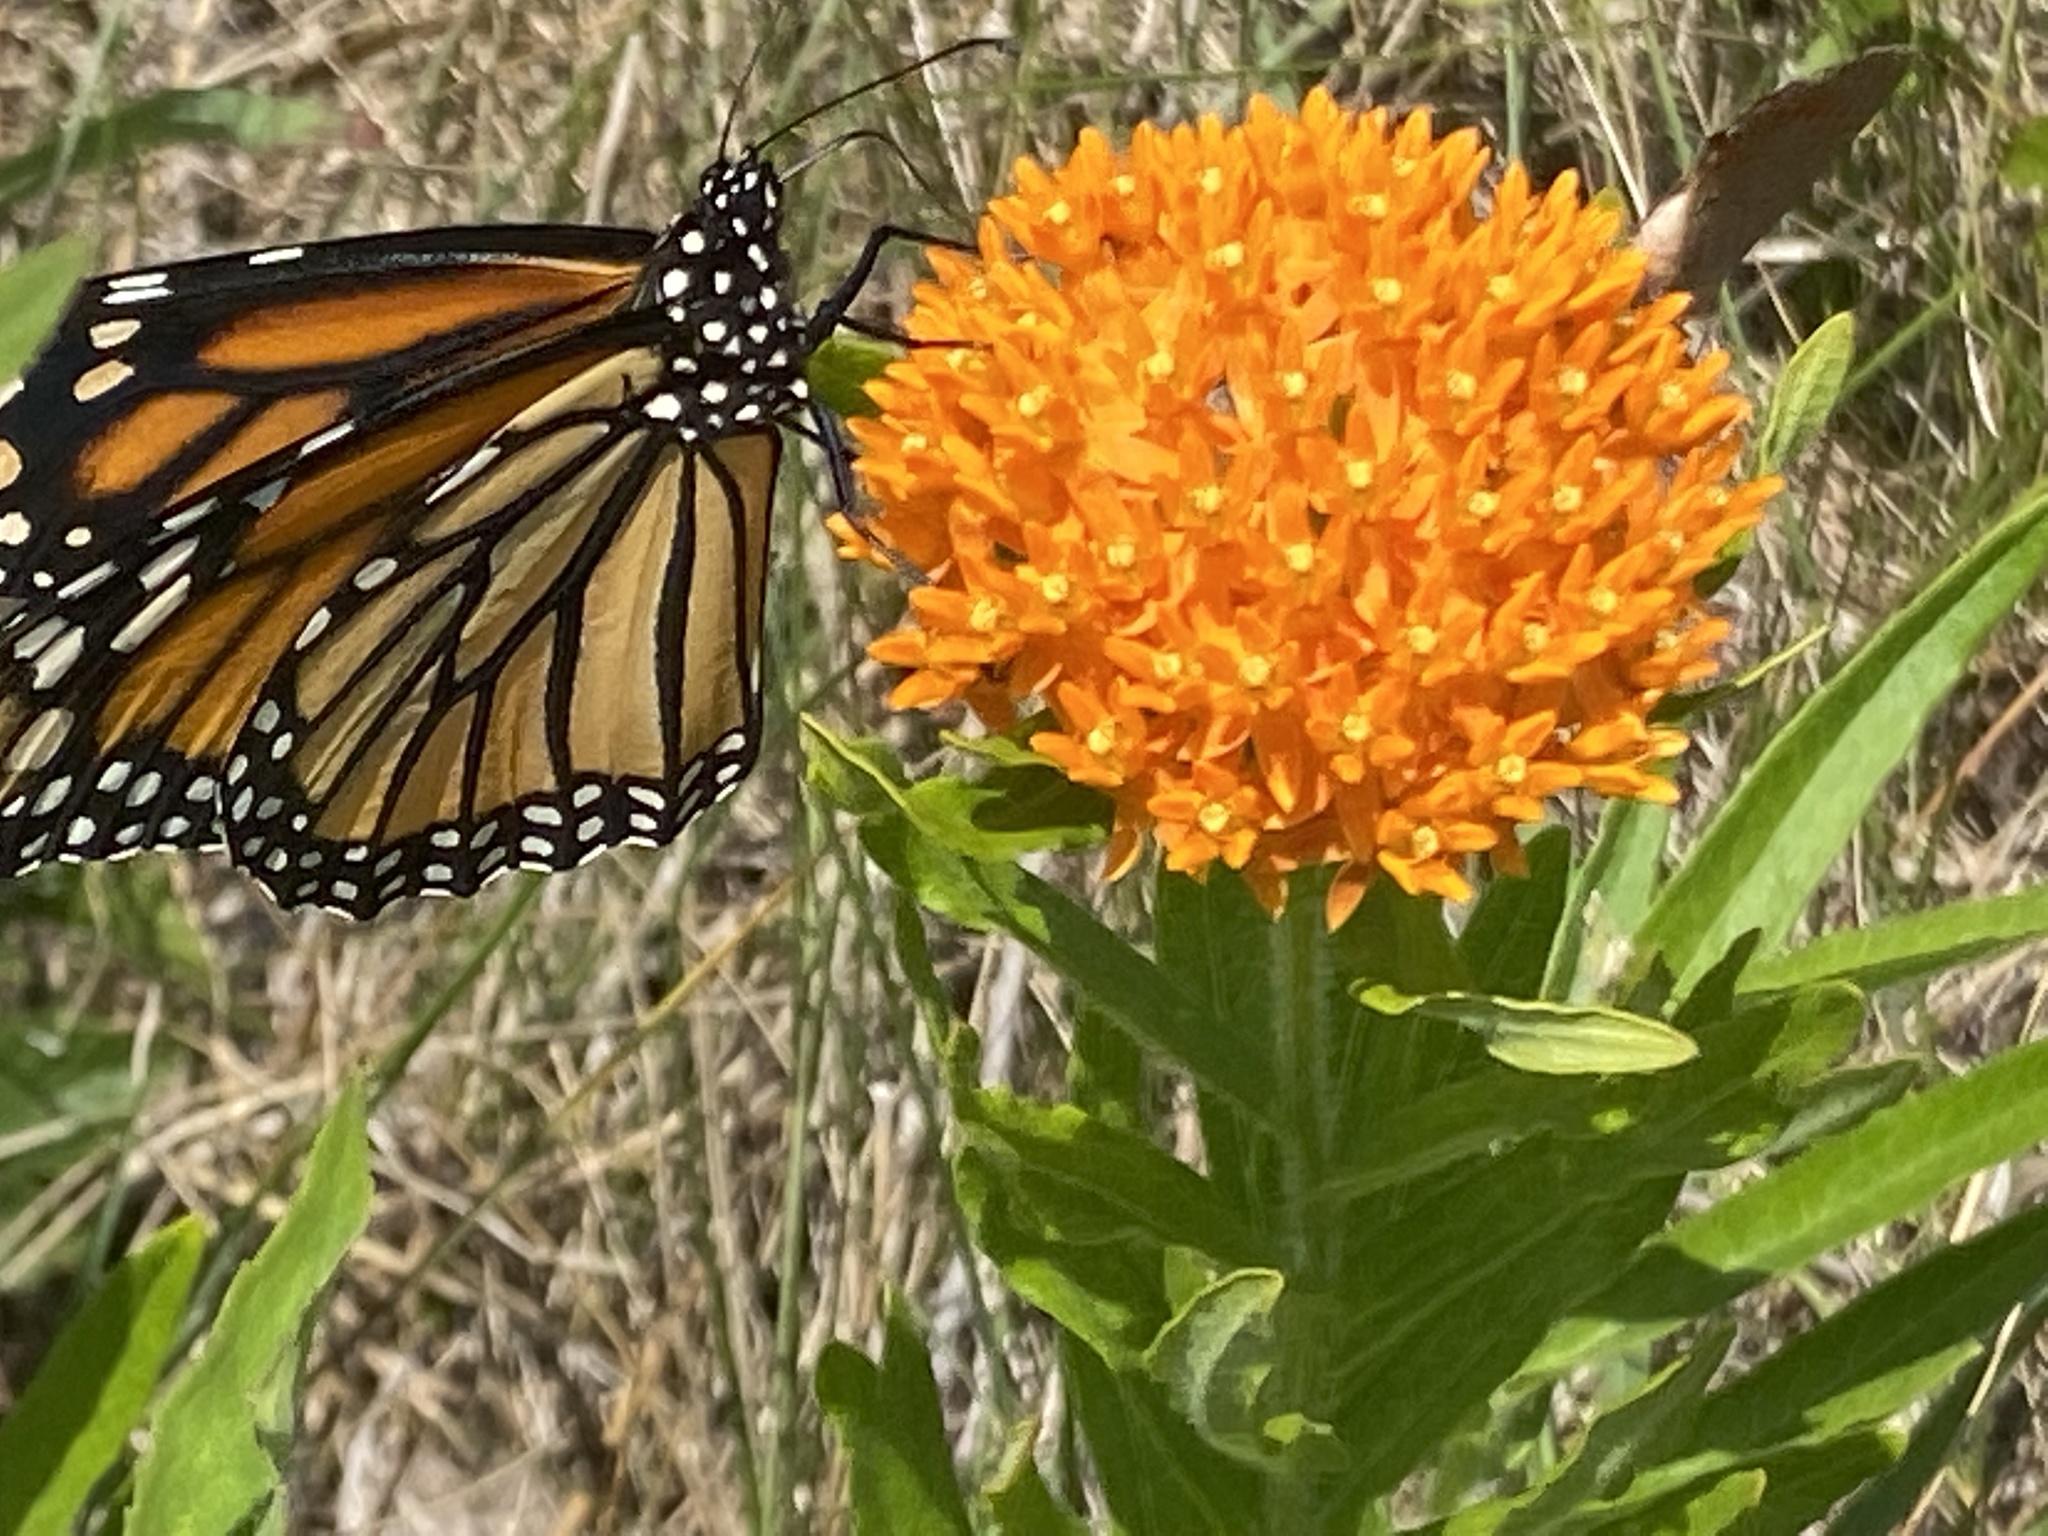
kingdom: Animalia
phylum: Arthropoda
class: Insecta
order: Lepidoptera
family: Nymphalidae
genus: Danaus
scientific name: Danaus plexippus
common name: Monarch
